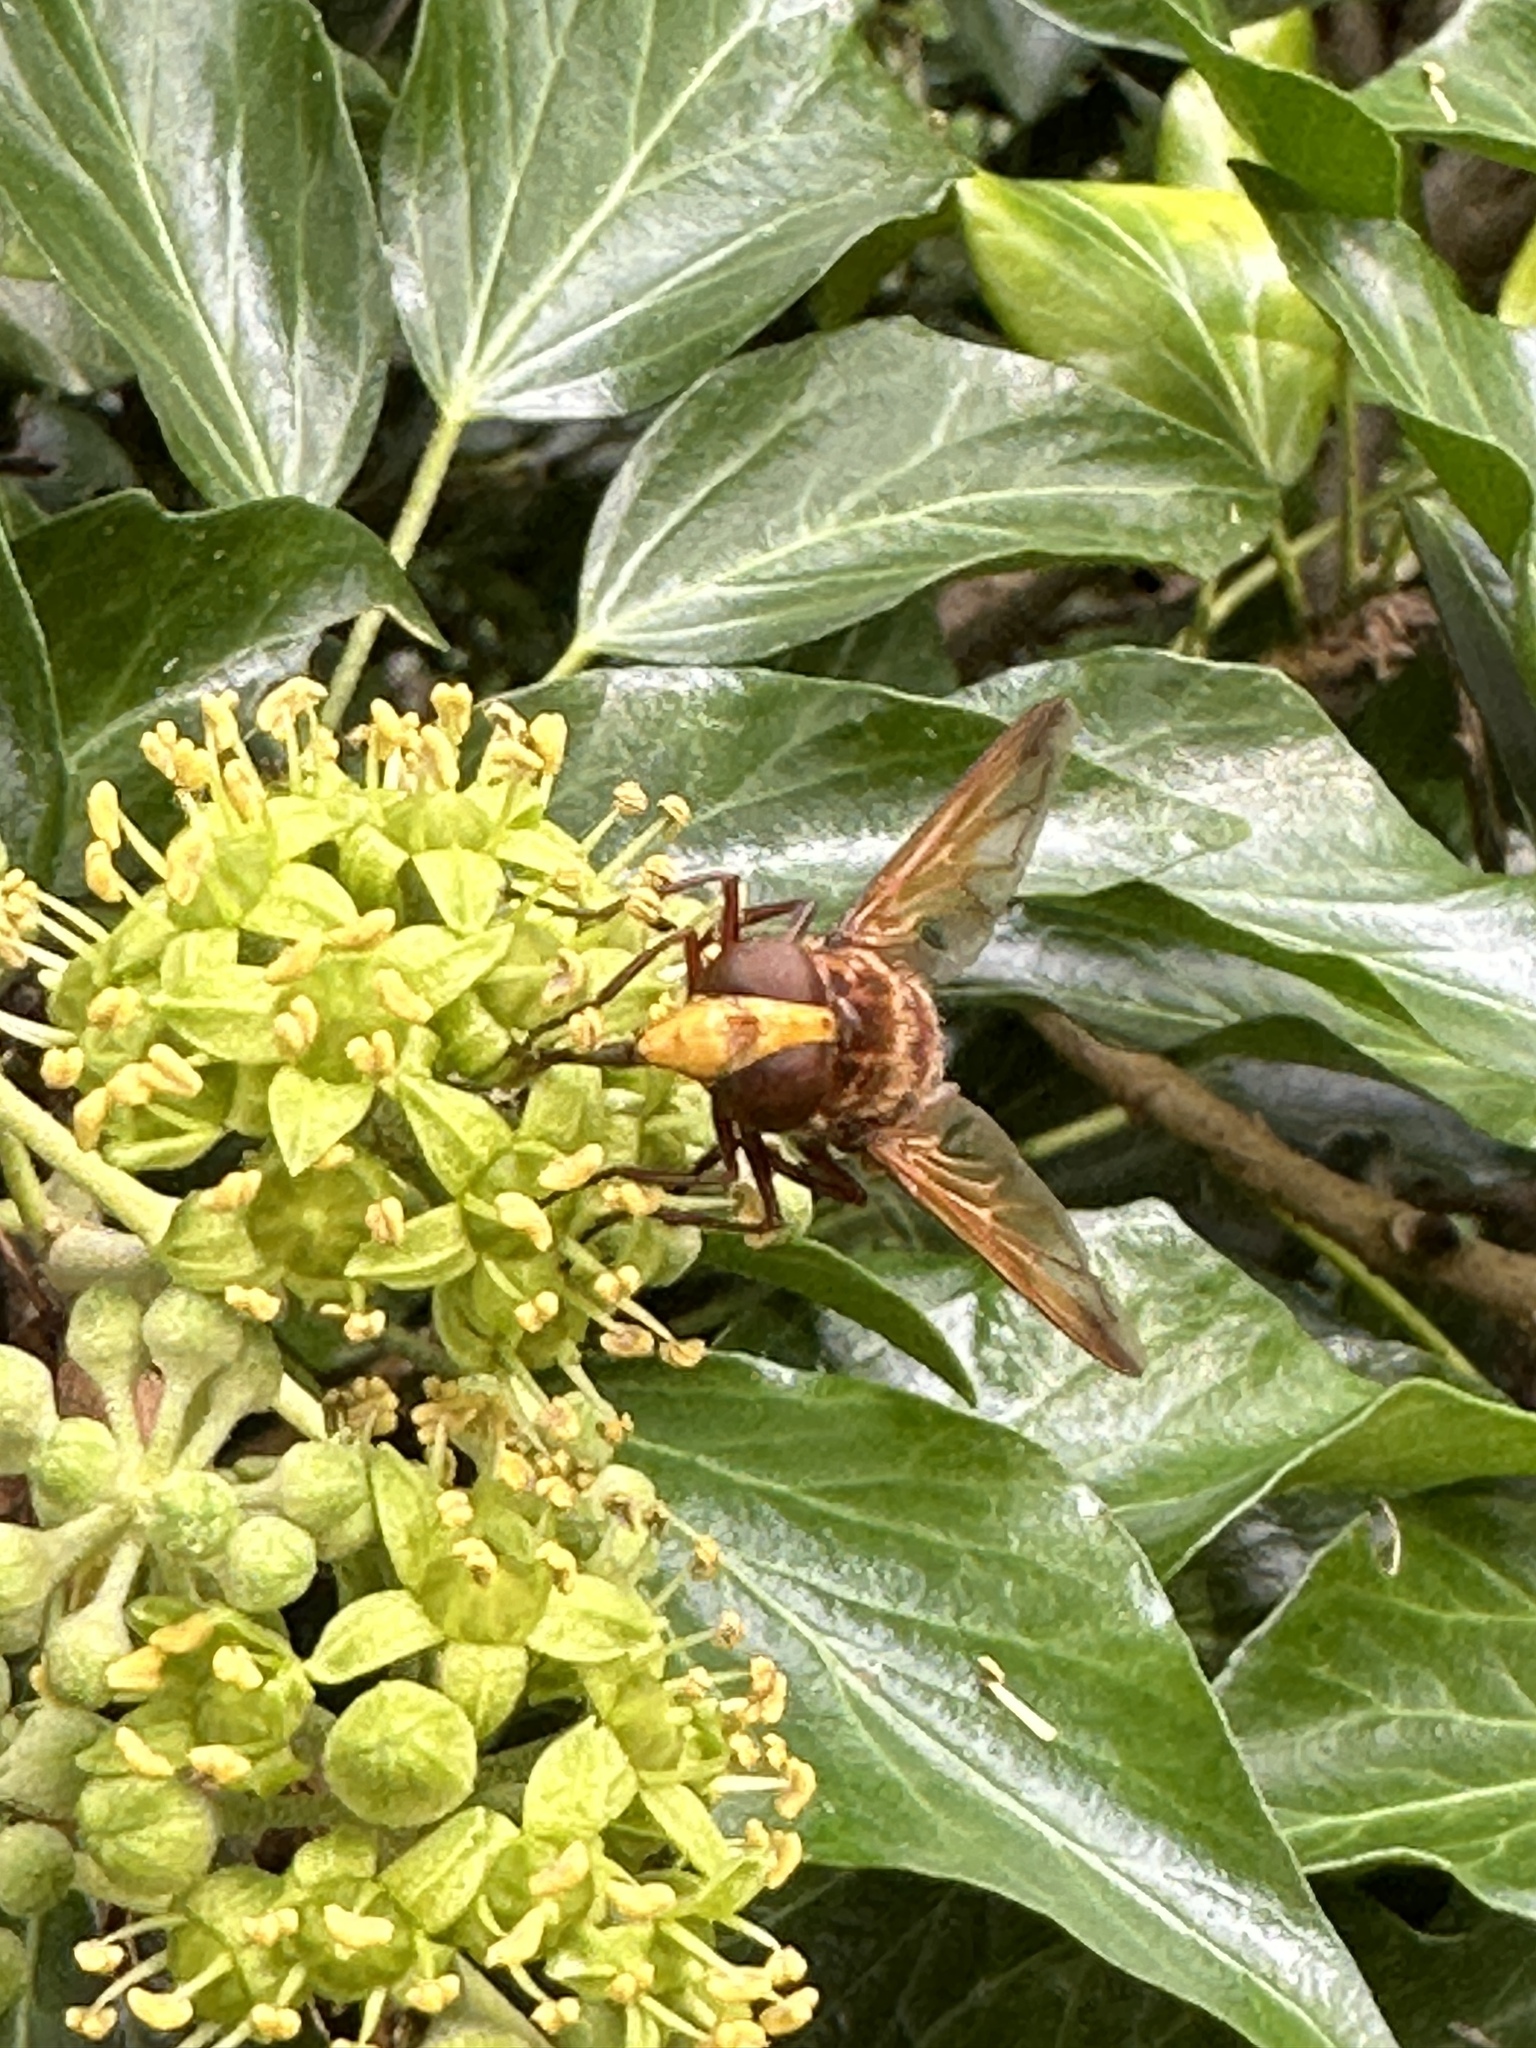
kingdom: Animalia
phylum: Arthropoda
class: Insecta
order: Diptera
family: Syrphidae
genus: Volucella
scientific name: Volucella zonaria
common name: Hornet hoverfly
